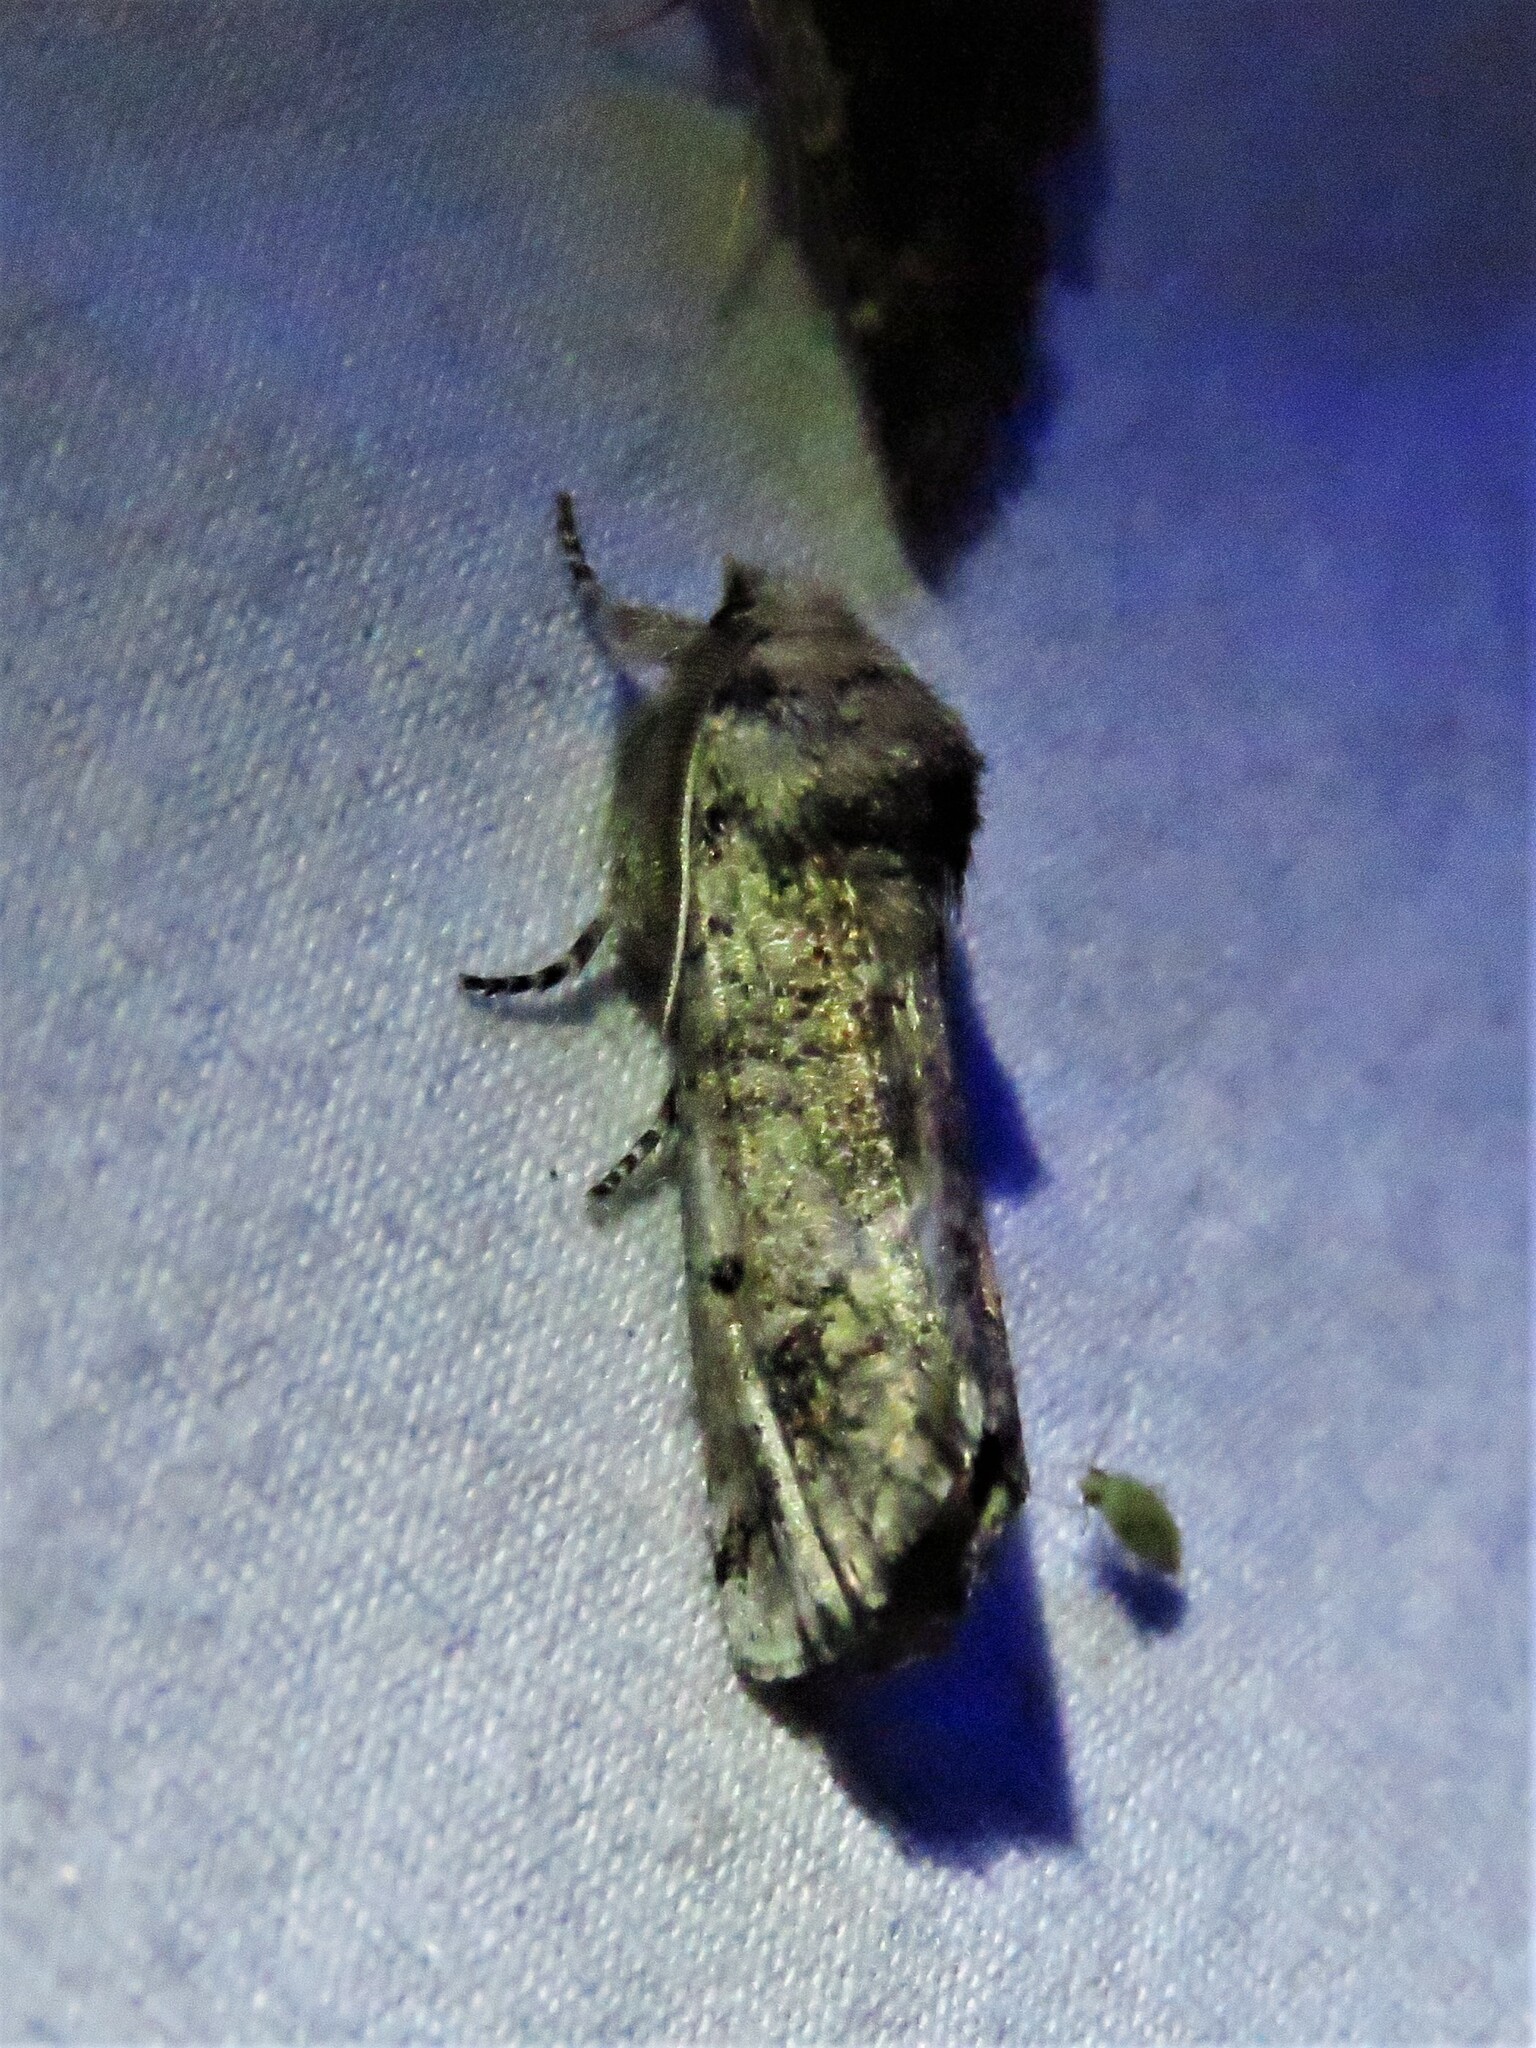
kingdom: Animalia
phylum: Arthropoda
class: Insecta
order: Lepidoptera
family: Erebidae
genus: Aon
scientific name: Aon noctuiformis
